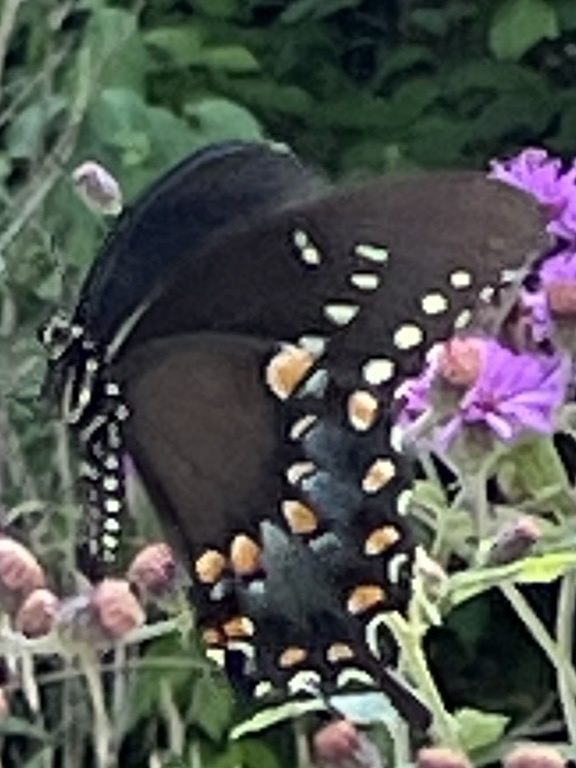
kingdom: Animalia
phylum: Arthropoda
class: Insecta
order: Lepidoptera
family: Papilionidae
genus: Papilio
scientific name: Papilio troilus
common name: Spicebush swallowtail
